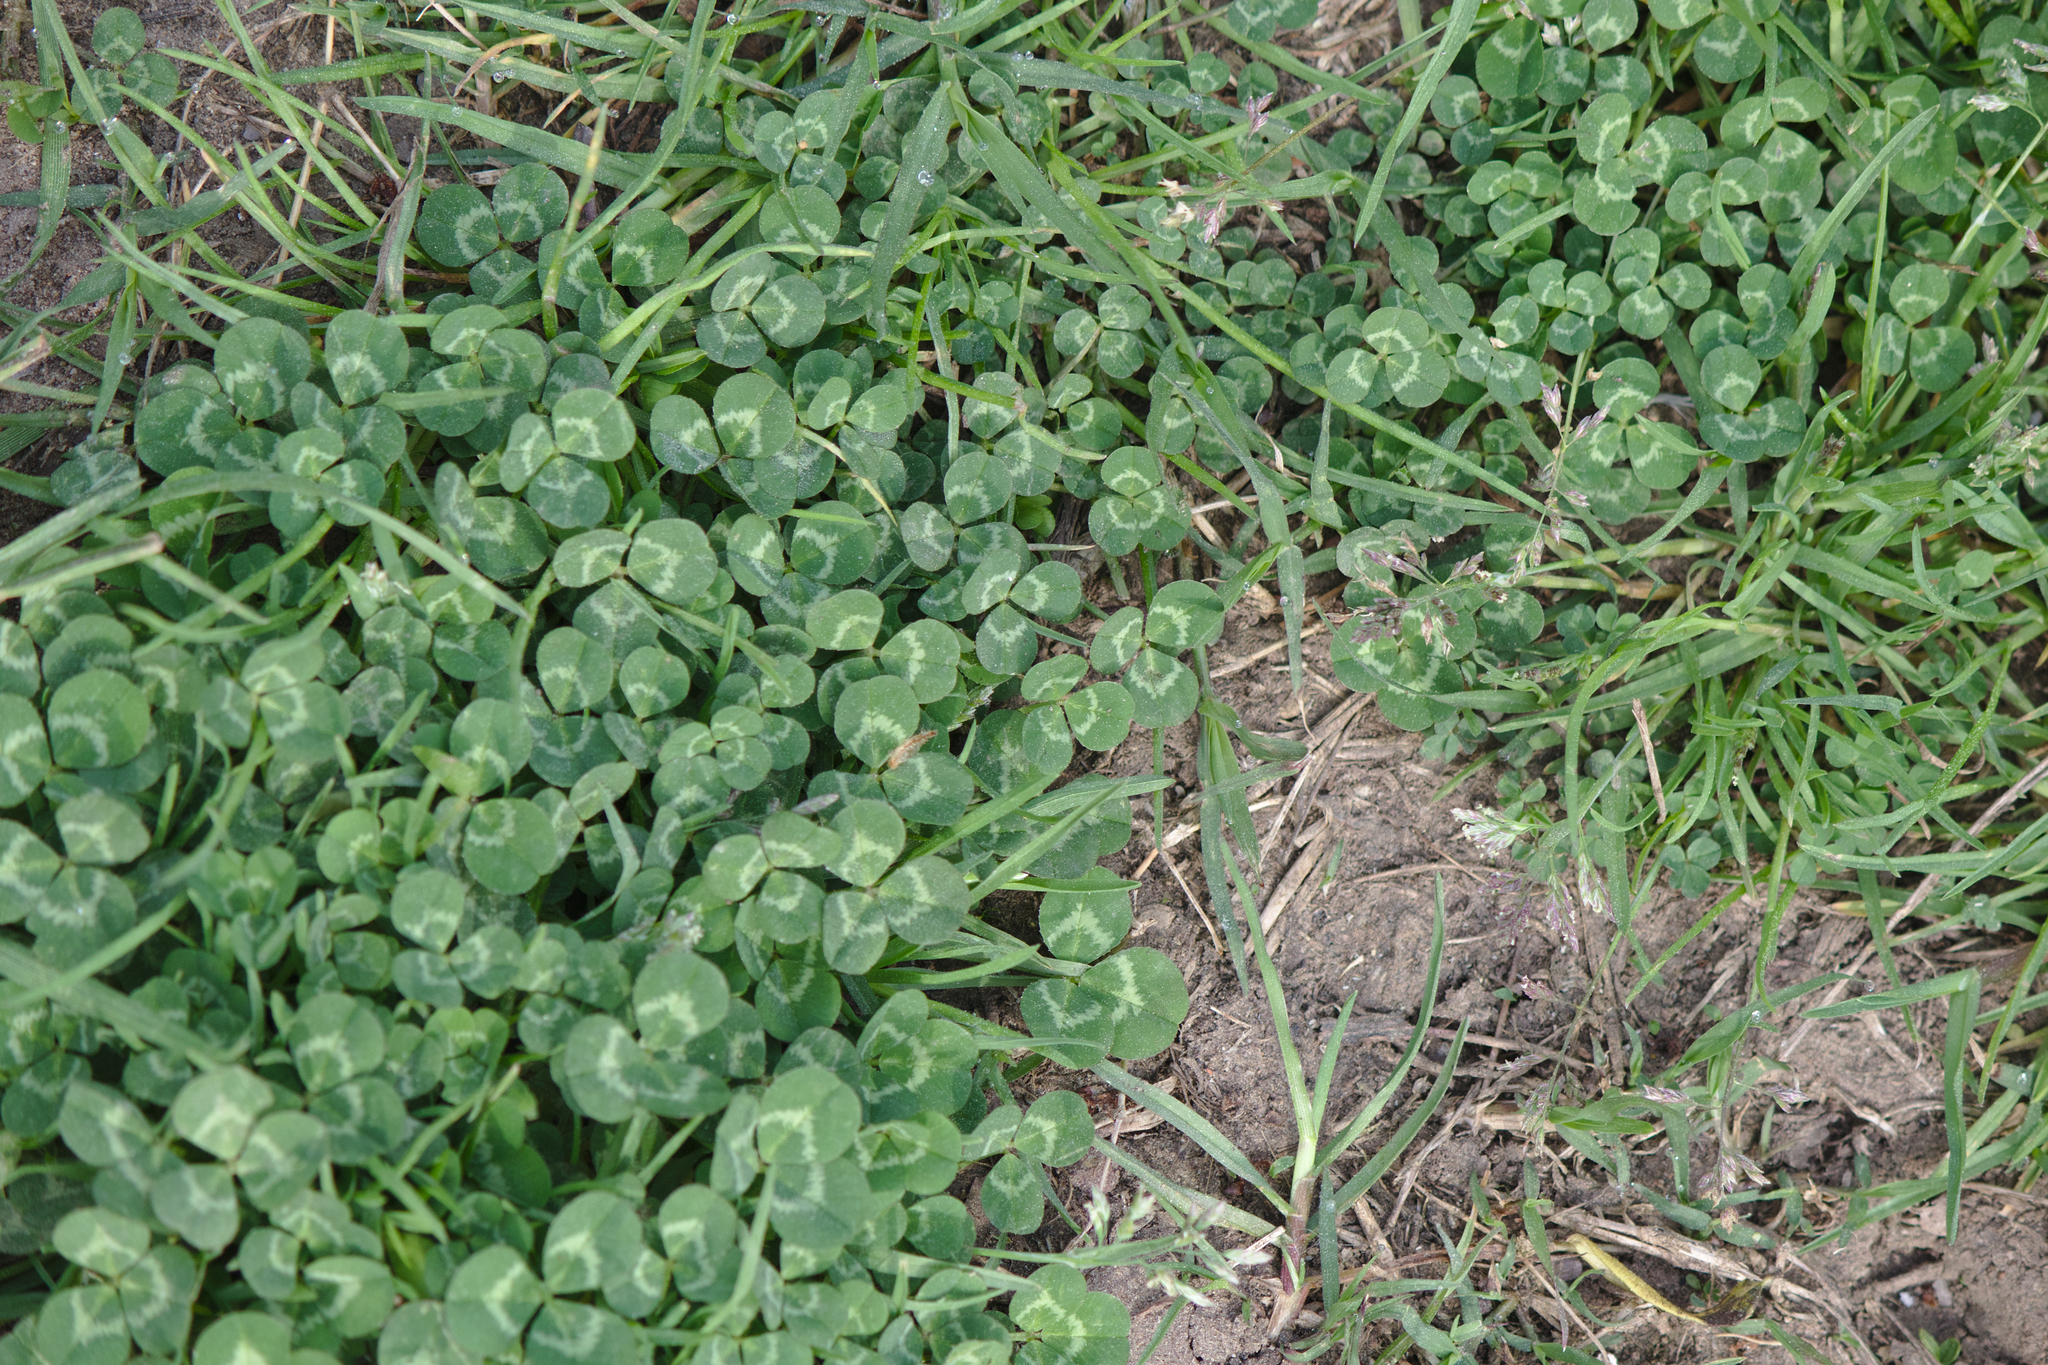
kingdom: Plantae
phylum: Tracheophyta
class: Magnoliopsida
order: Fabales
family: Fabaceae
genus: Trifolium
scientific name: Trifolium repens
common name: White clover
